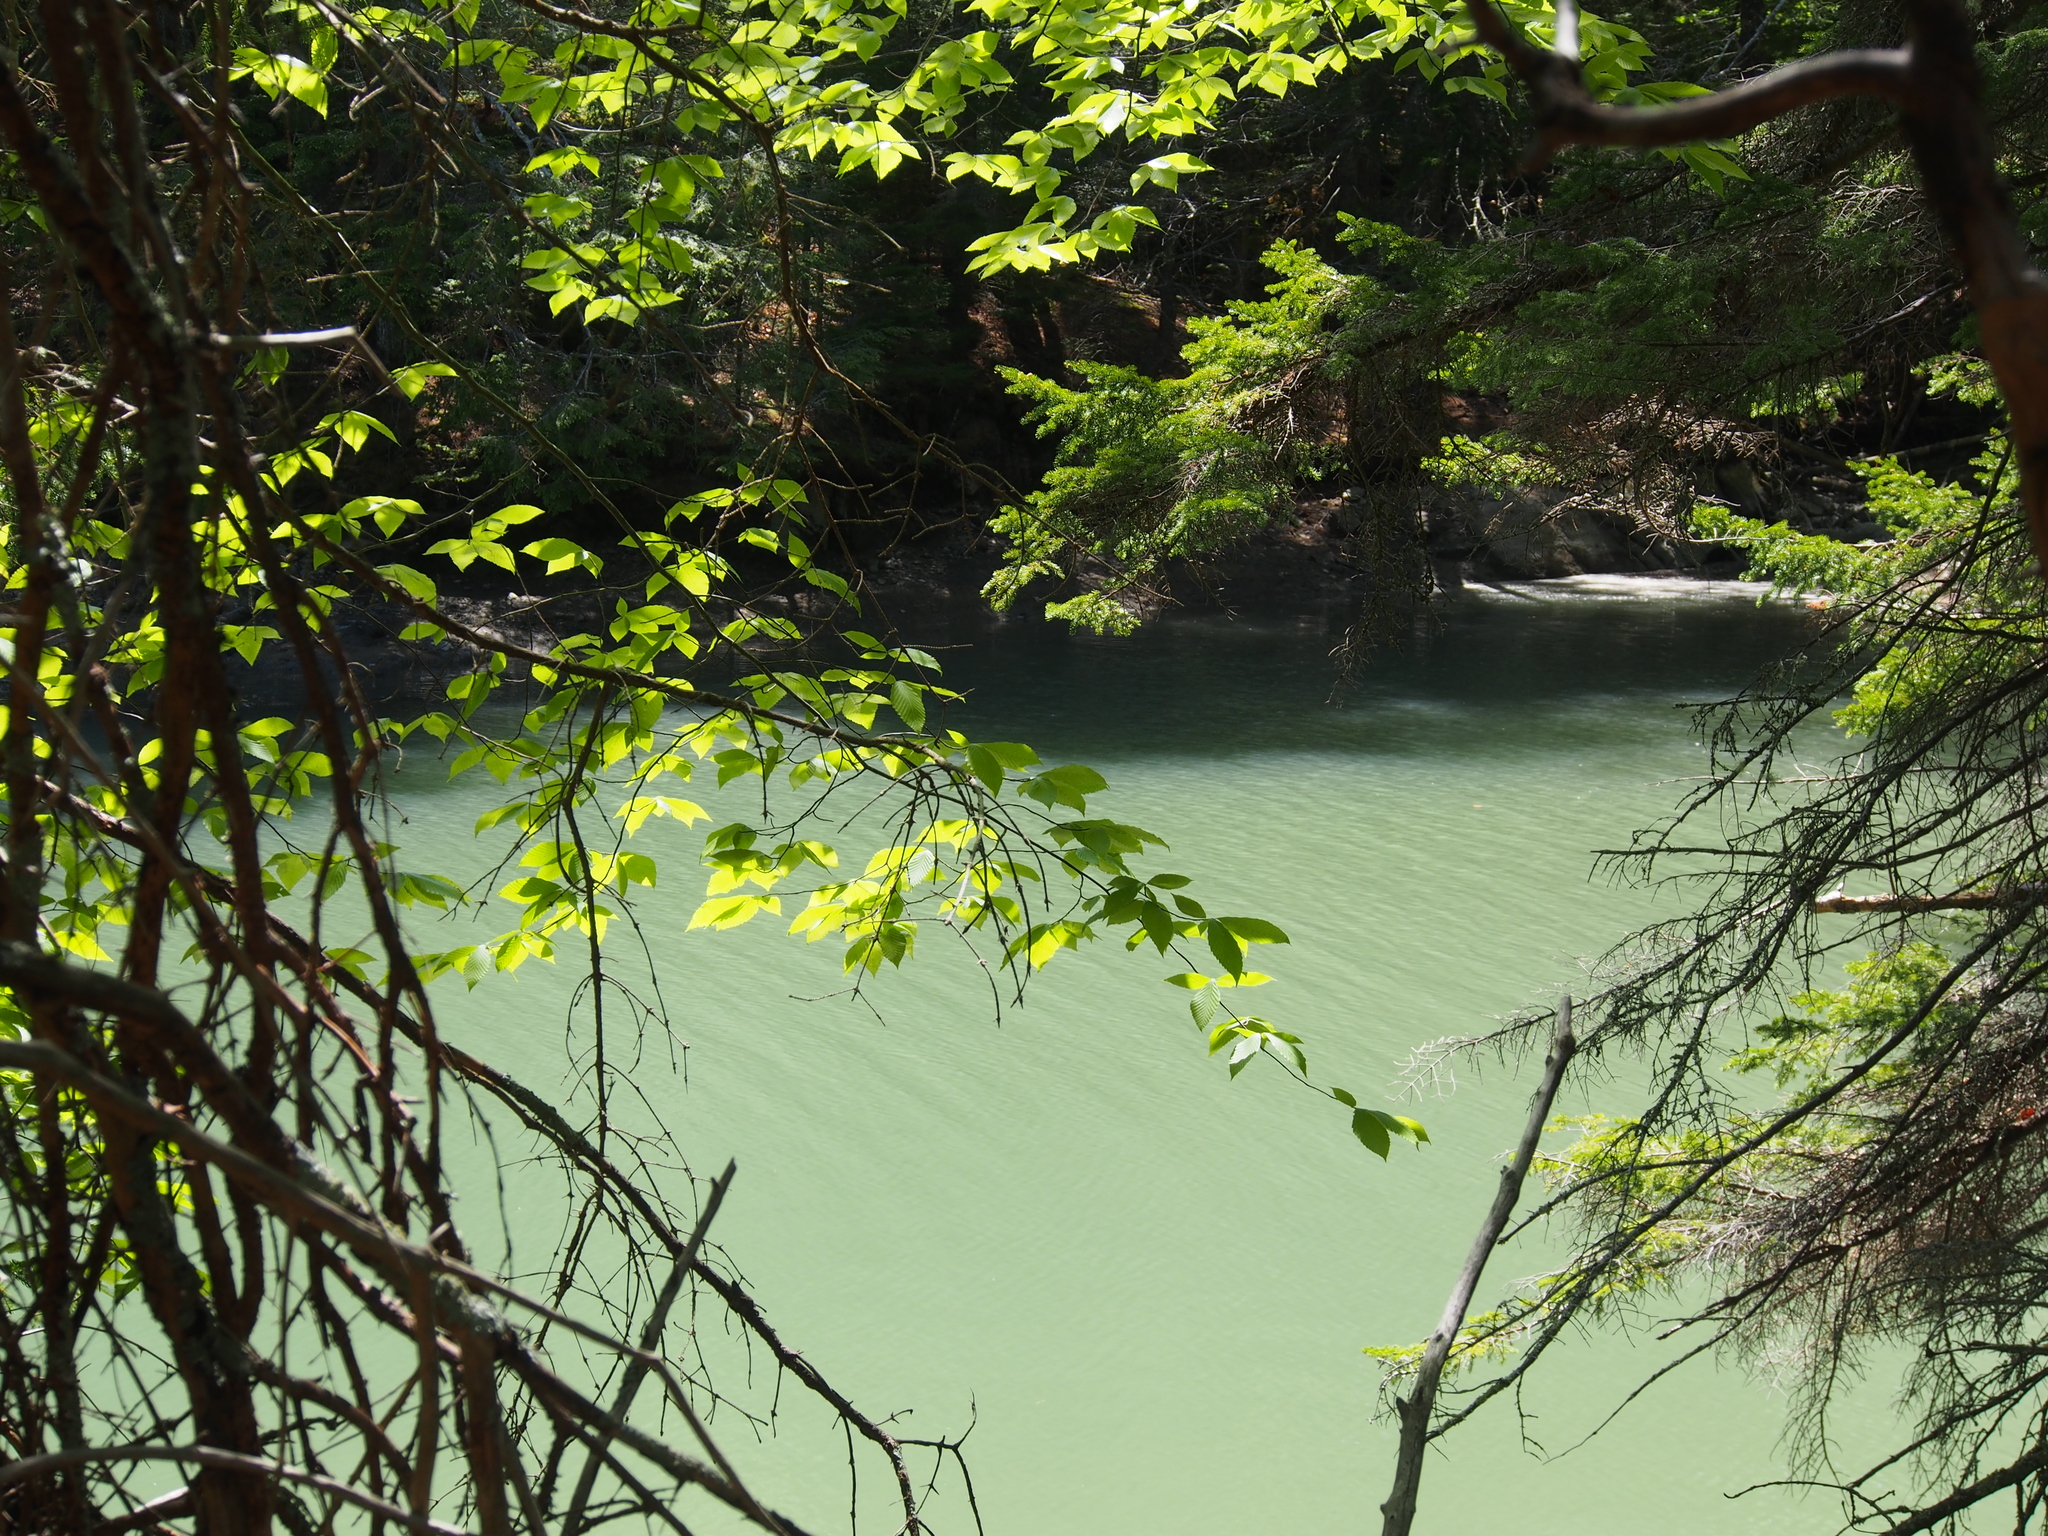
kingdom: Plantae
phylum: Tracheophyta
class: Magnoliopsida
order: Fagales
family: Fagaceae
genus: Fagus
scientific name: Fagus grandifolia
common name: American beech
